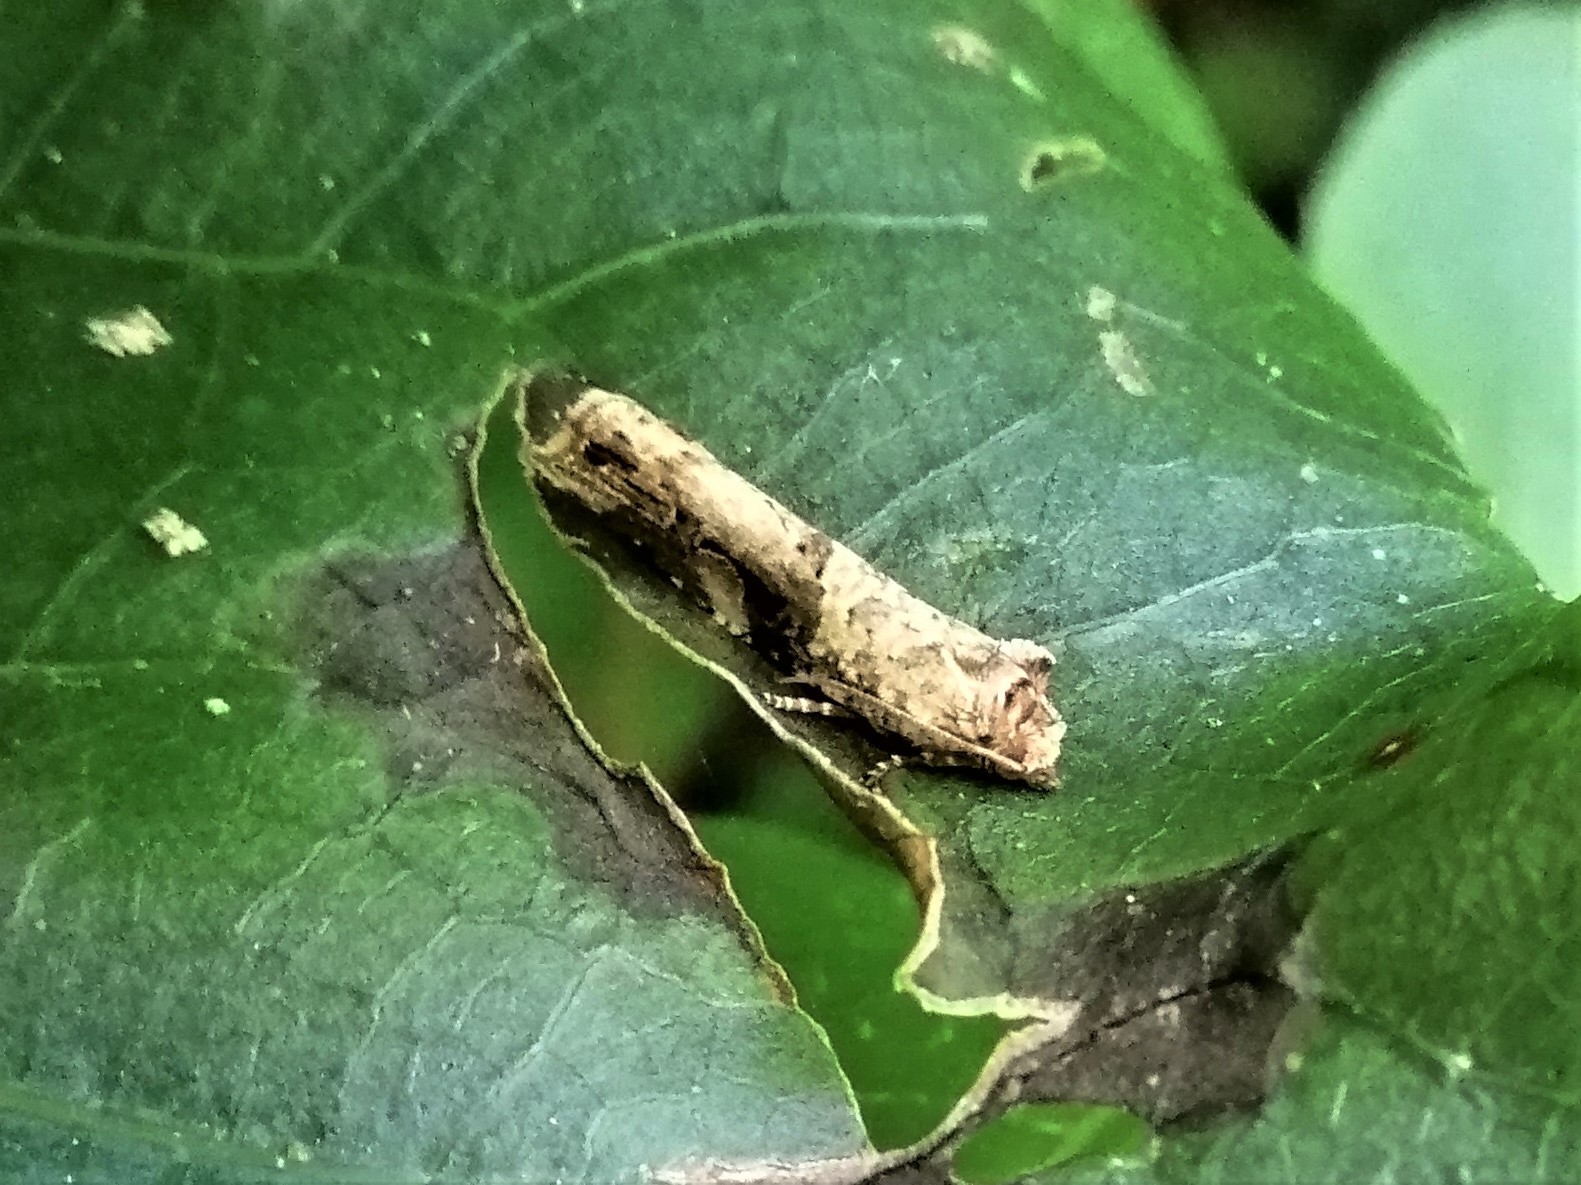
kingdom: Animalia
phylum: Arthropoda
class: Insecta
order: Lepidoptera
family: Tortricidae
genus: Epalxiphora
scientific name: Epalxiphora axenana
